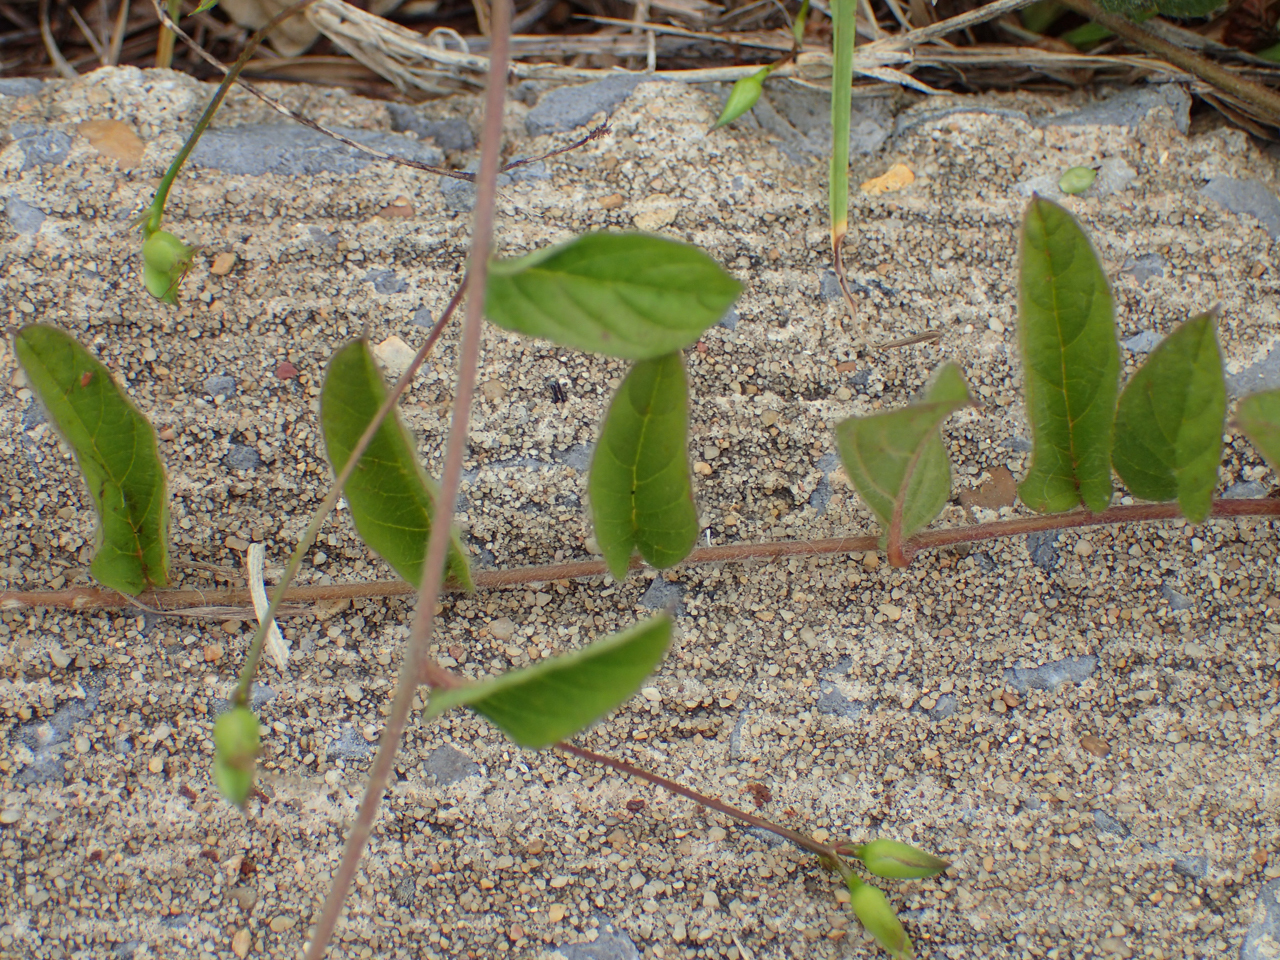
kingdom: Plantae
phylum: Tracheophyta
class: Magnoliopsida
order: Solanales
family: Convolvulaceae
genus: Stylisma
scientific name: Stylisma humistrata
